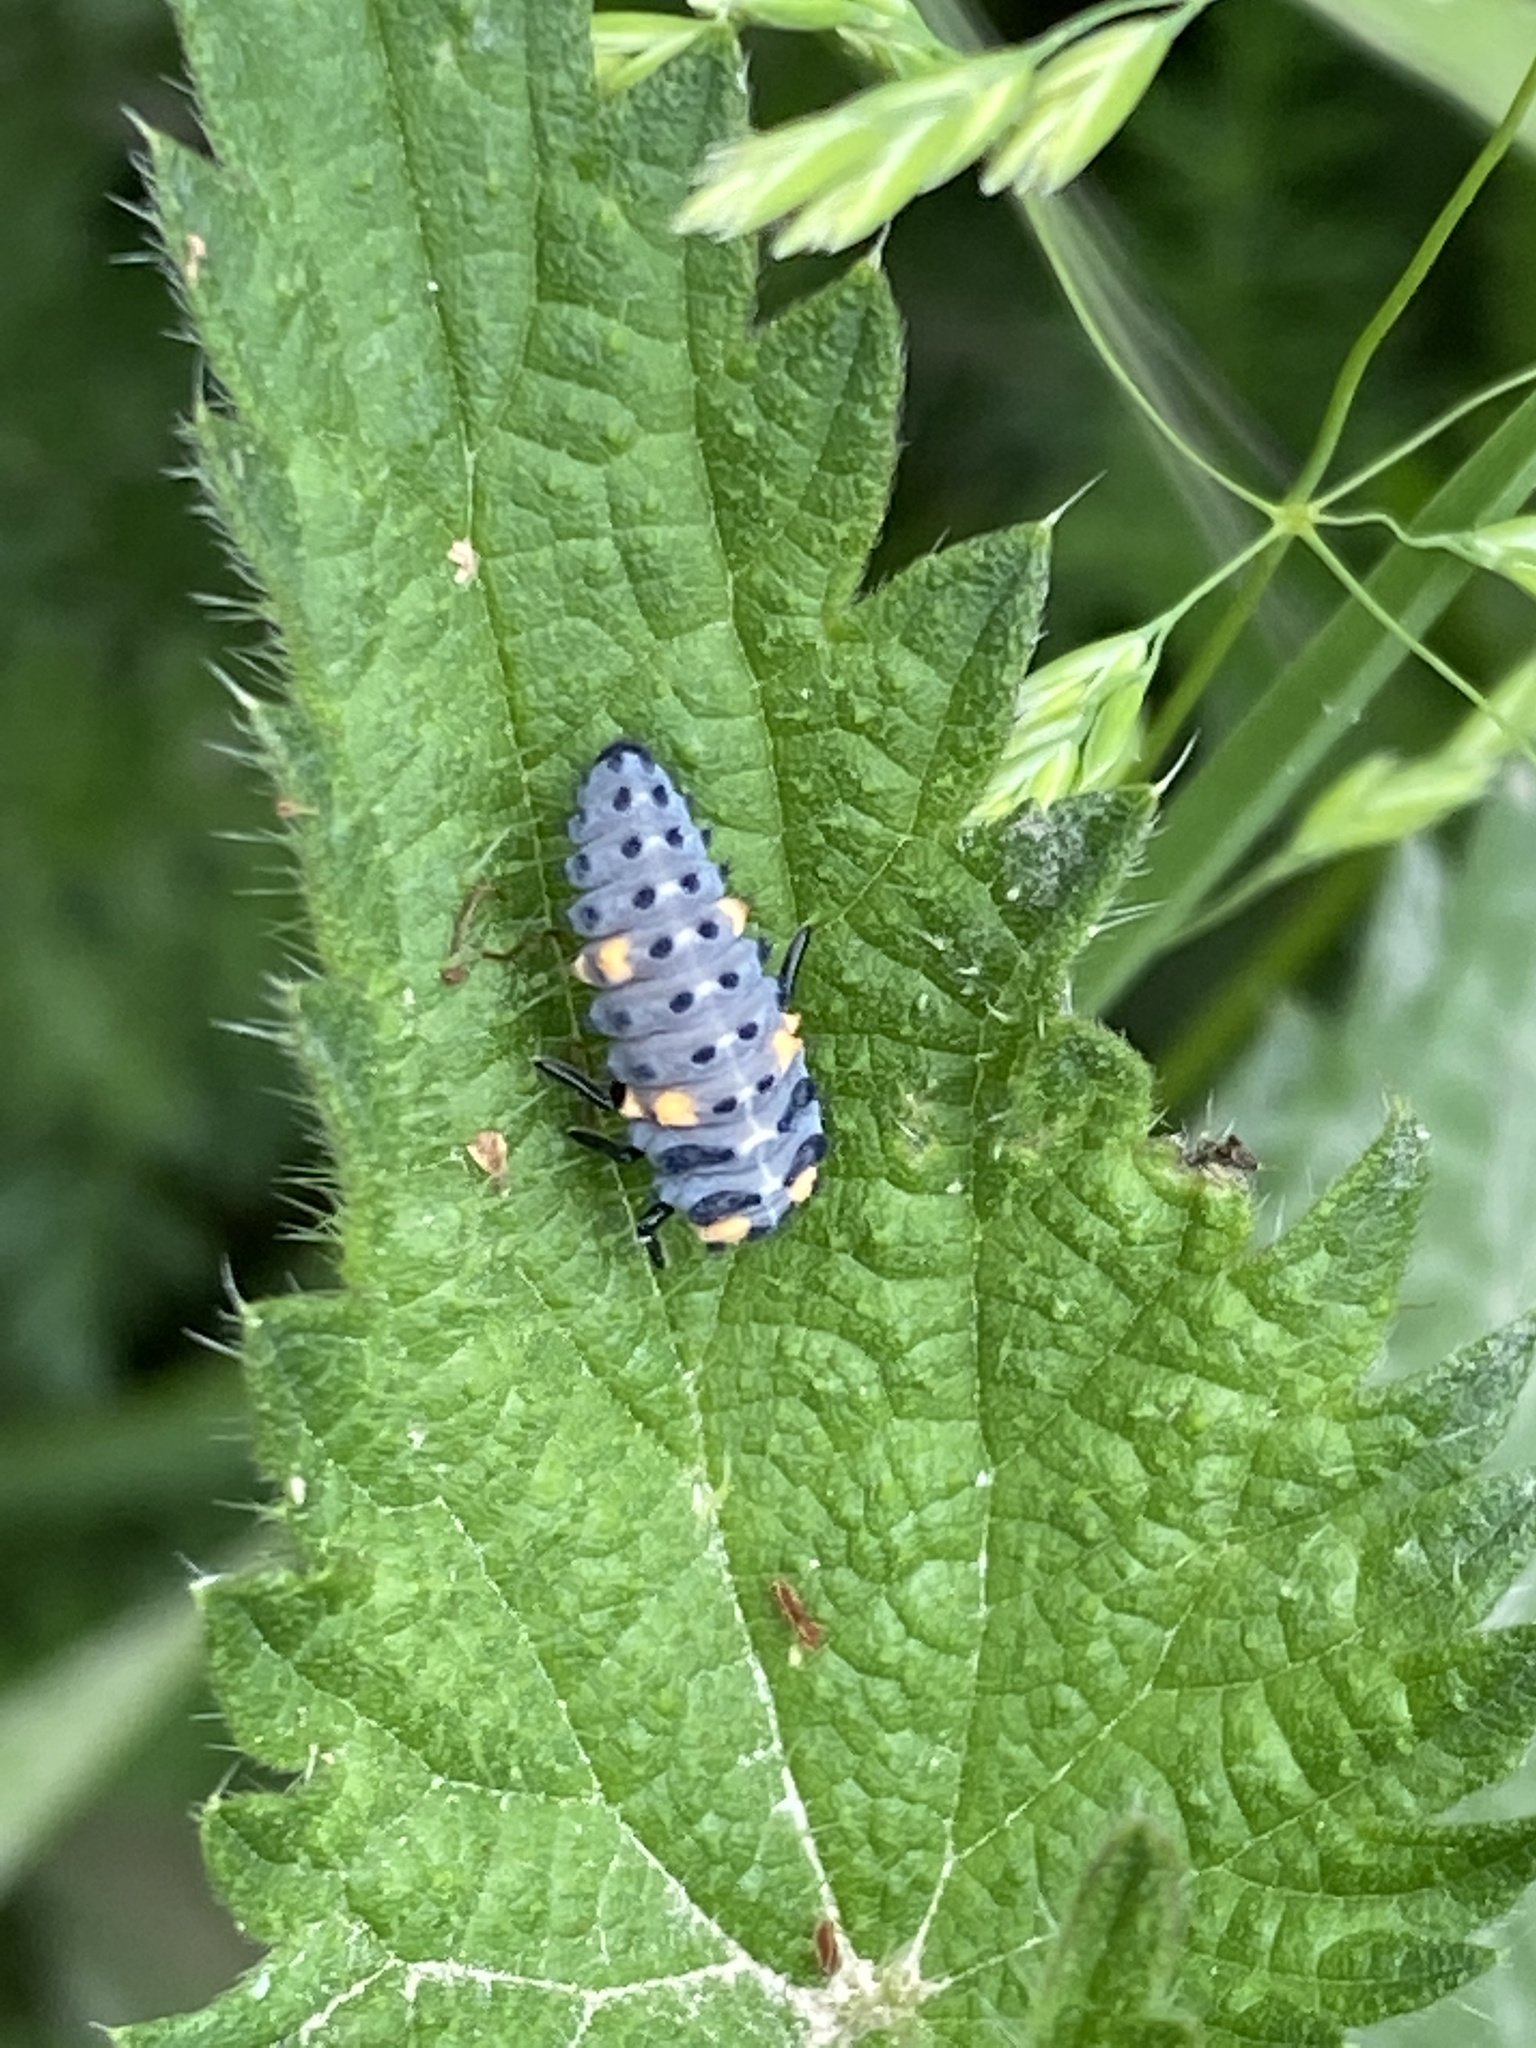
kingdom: Animalia
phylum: Arthropoda
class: Insecta
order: Coleoptera
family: Coccinellidae
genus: Coccinella
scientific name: Coccinella septempunctata
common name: Sevenspotted lady beetle
